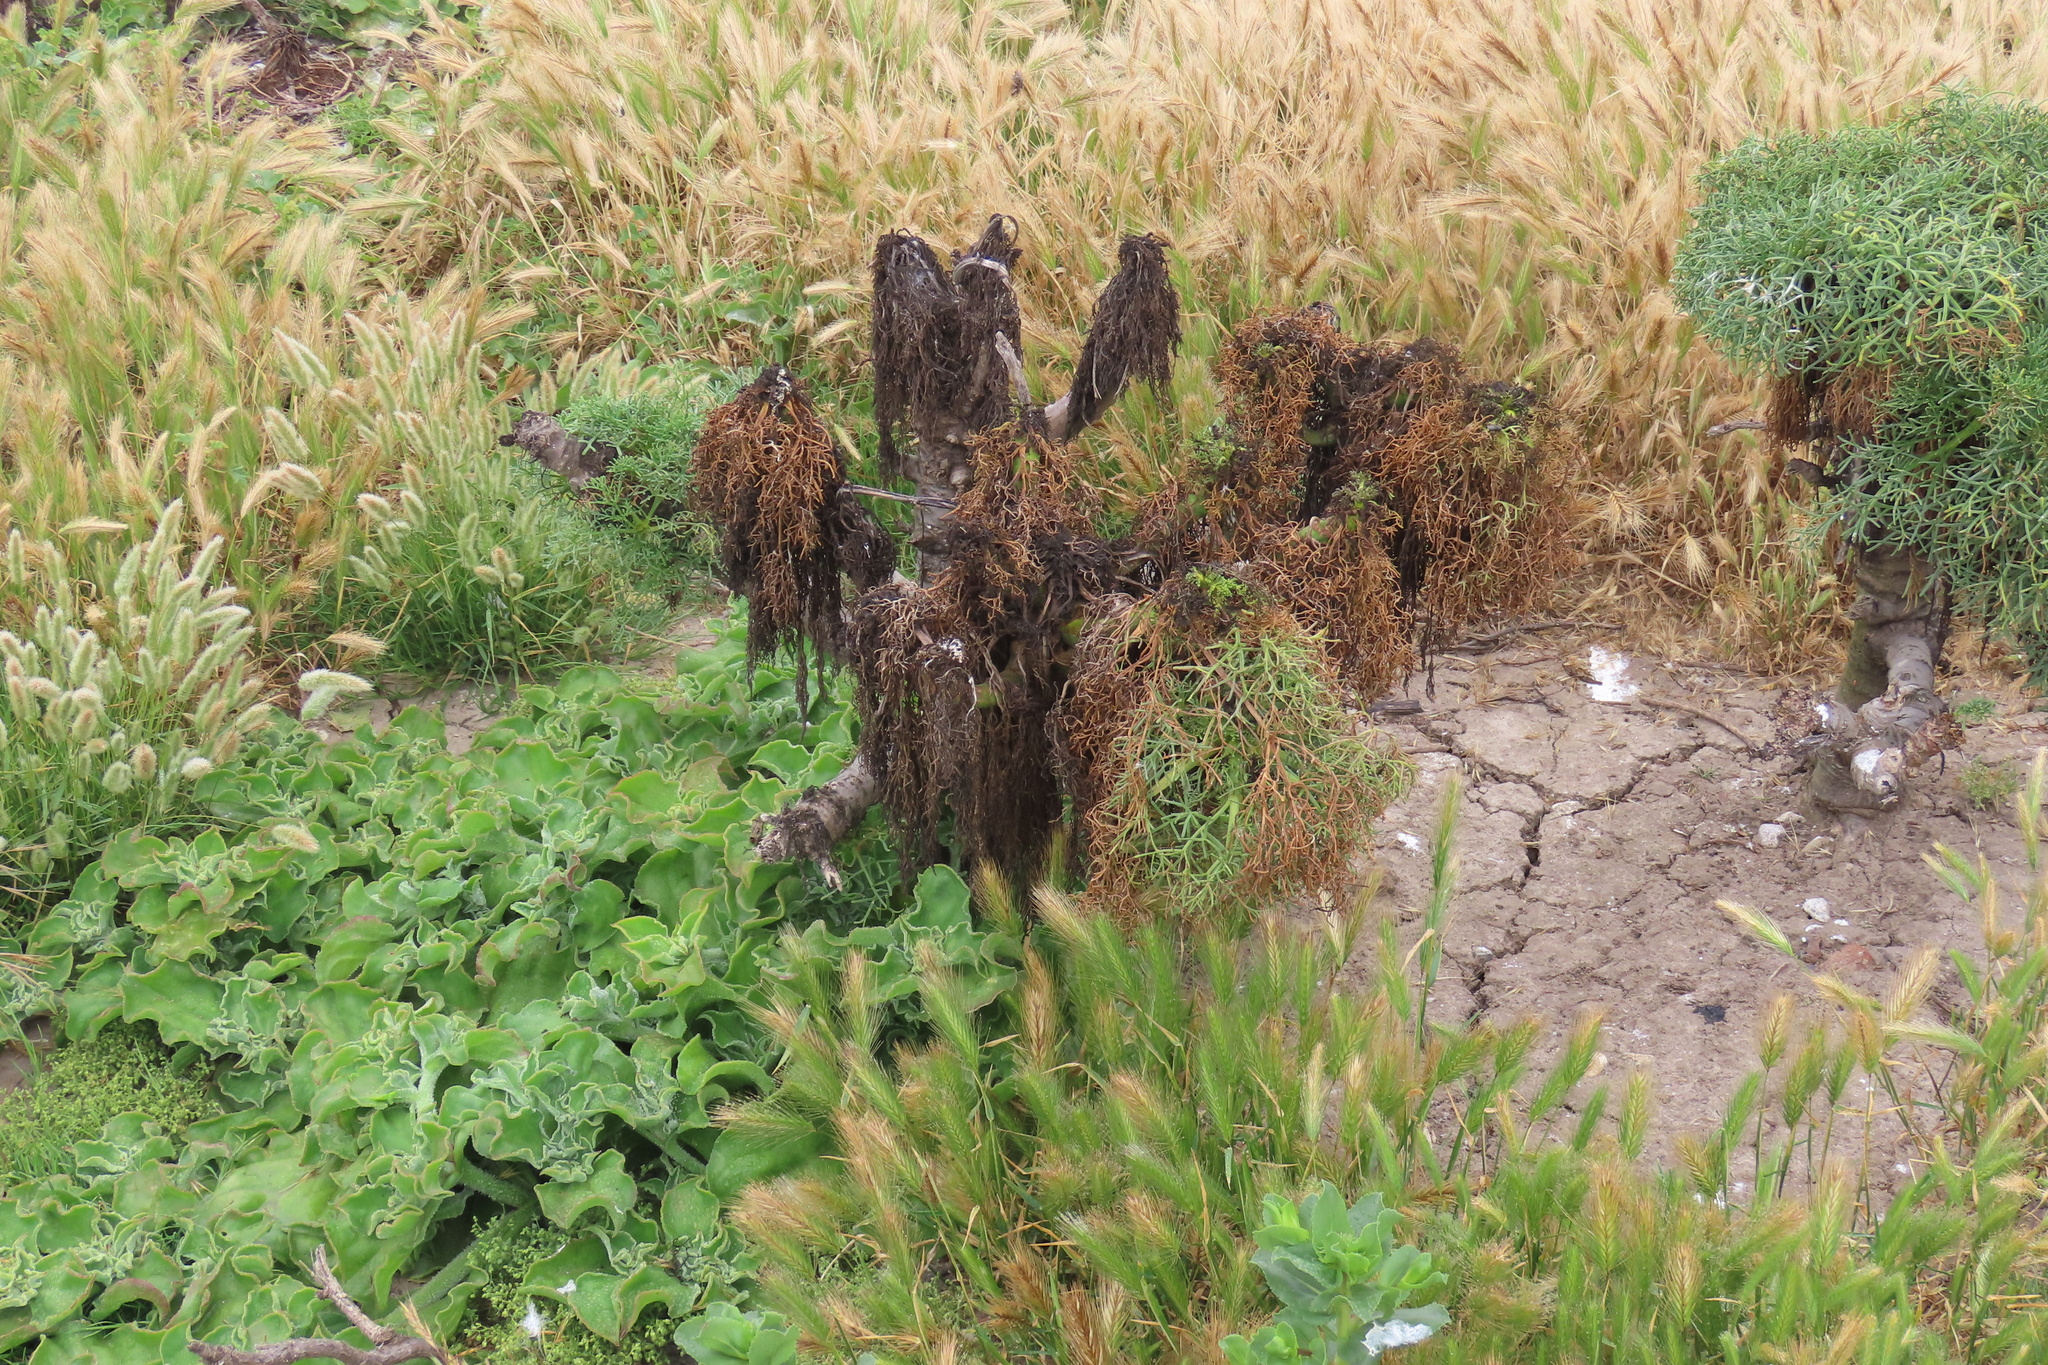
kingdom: Plantae
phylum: Tracheophyta
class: Magnoliopsida
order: Asterales
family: Asteraceae
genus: Coreopsis
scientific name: Coreopsis gigantea
